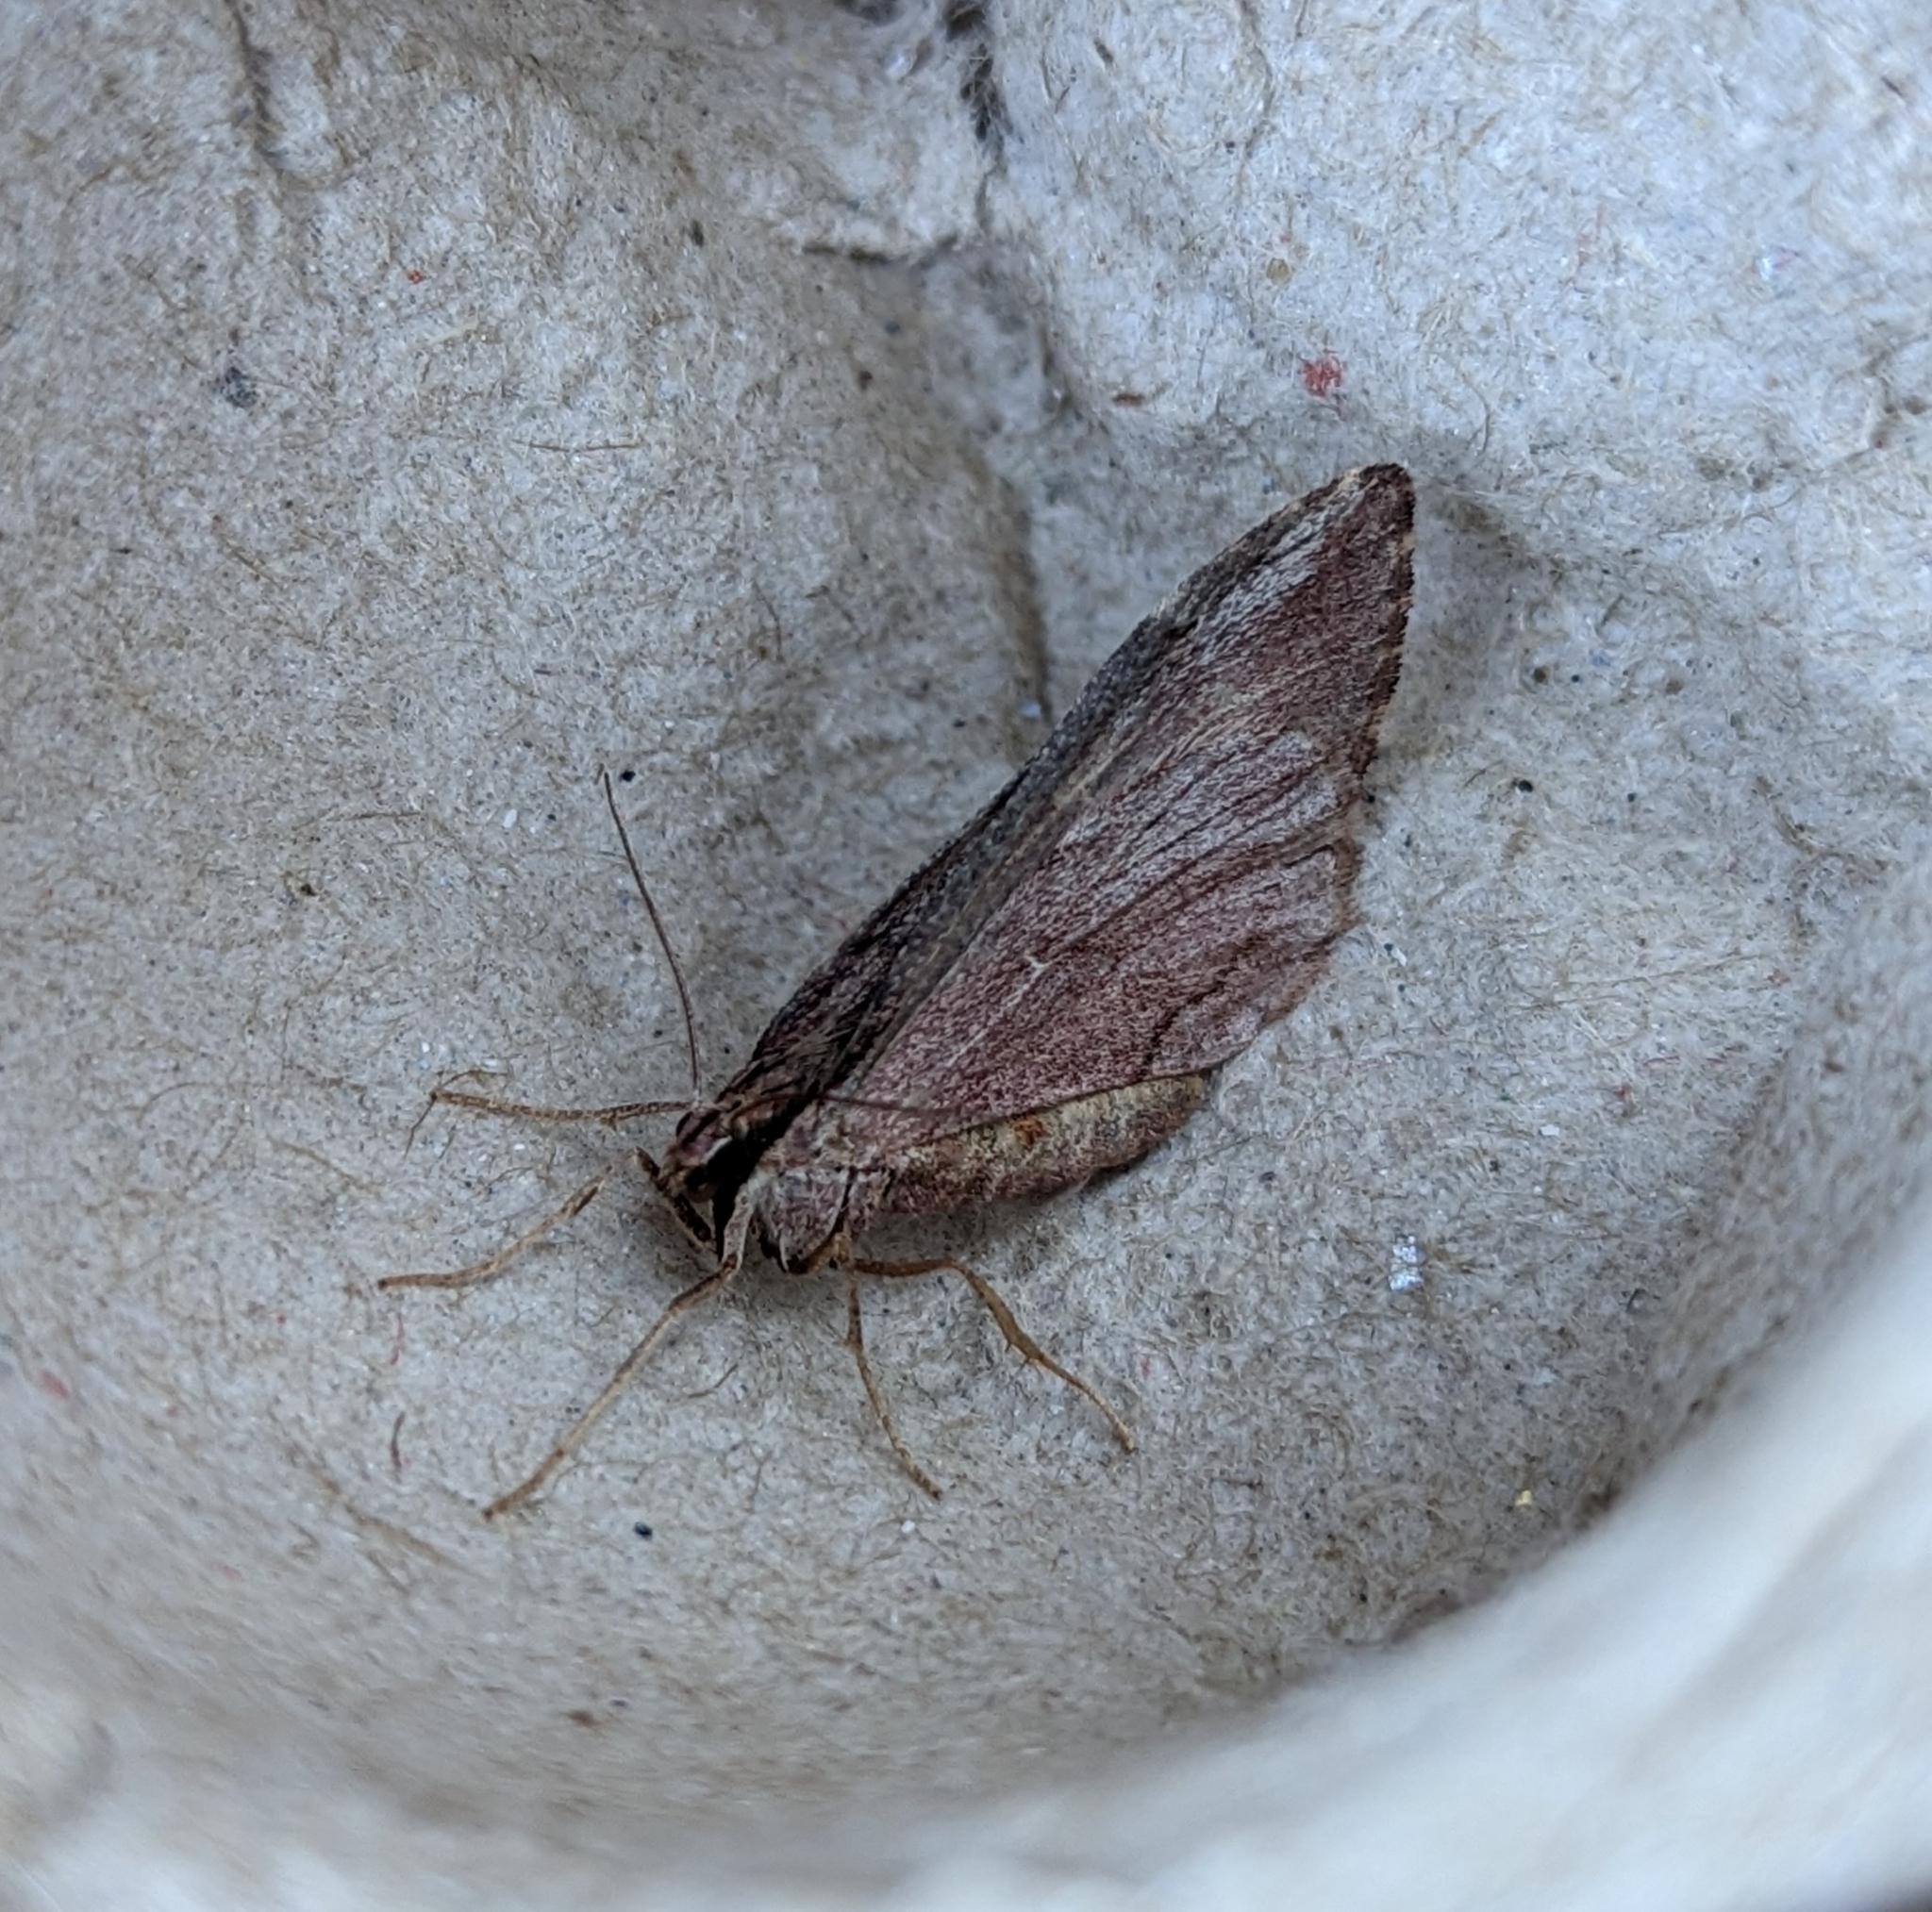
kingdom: Animalia
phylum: Arthropoda
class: Insecta
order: Lepidoptera
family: Geometridae
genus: Stamnoctenis
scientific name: Stamnoctenis pearsalli
